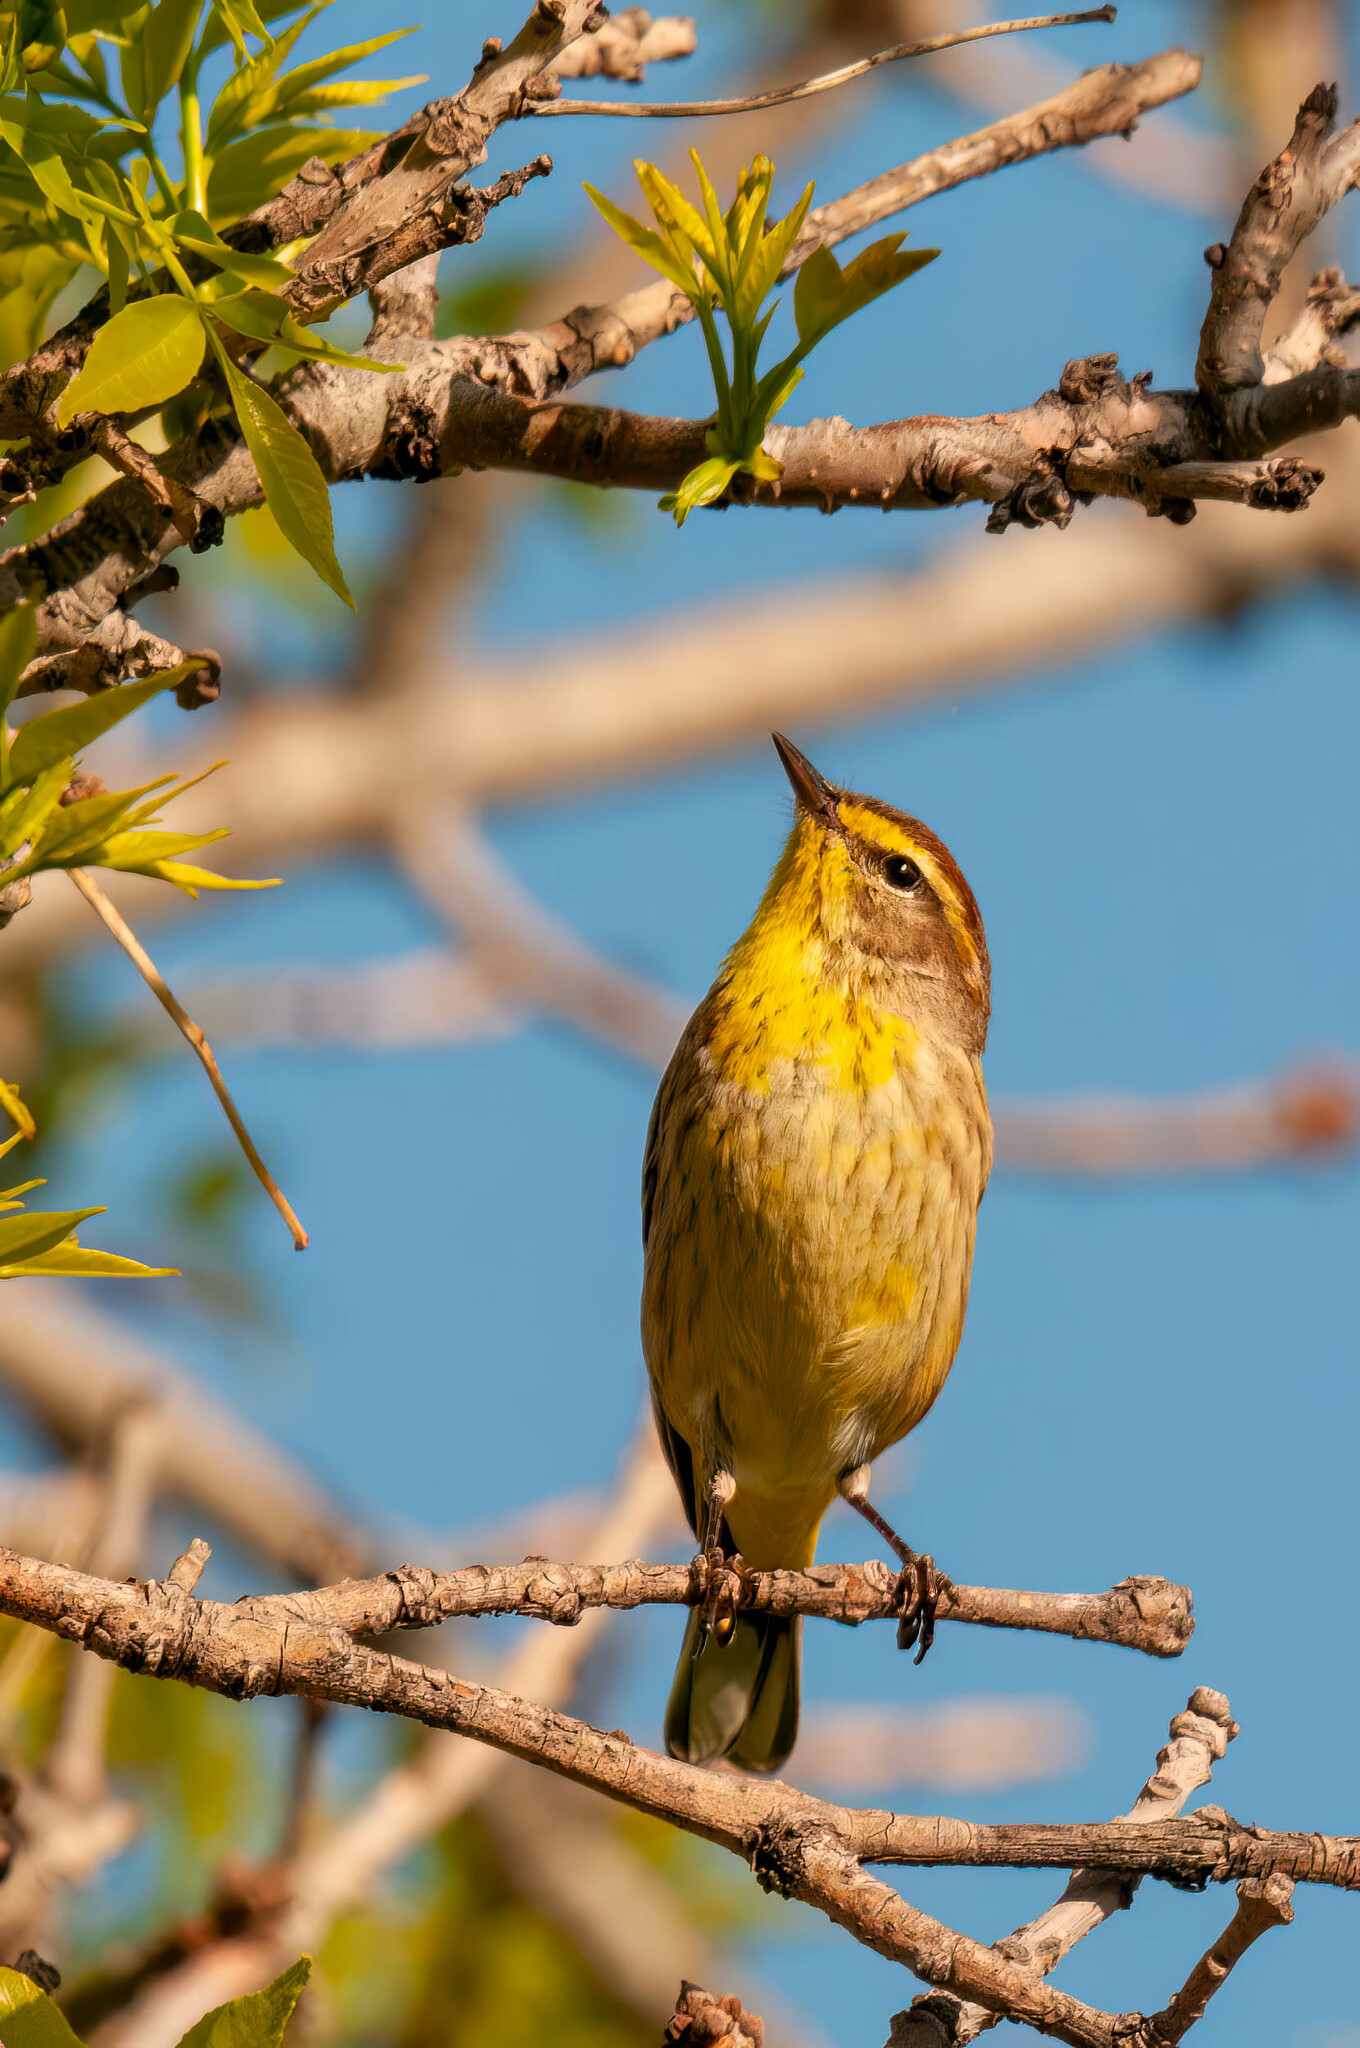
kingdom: Animalia
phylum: Chordata
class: Aves
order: Passeriformes
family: Parulidae
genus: Setophaga
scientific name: Setophaga palmarum
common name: Palm warbler
